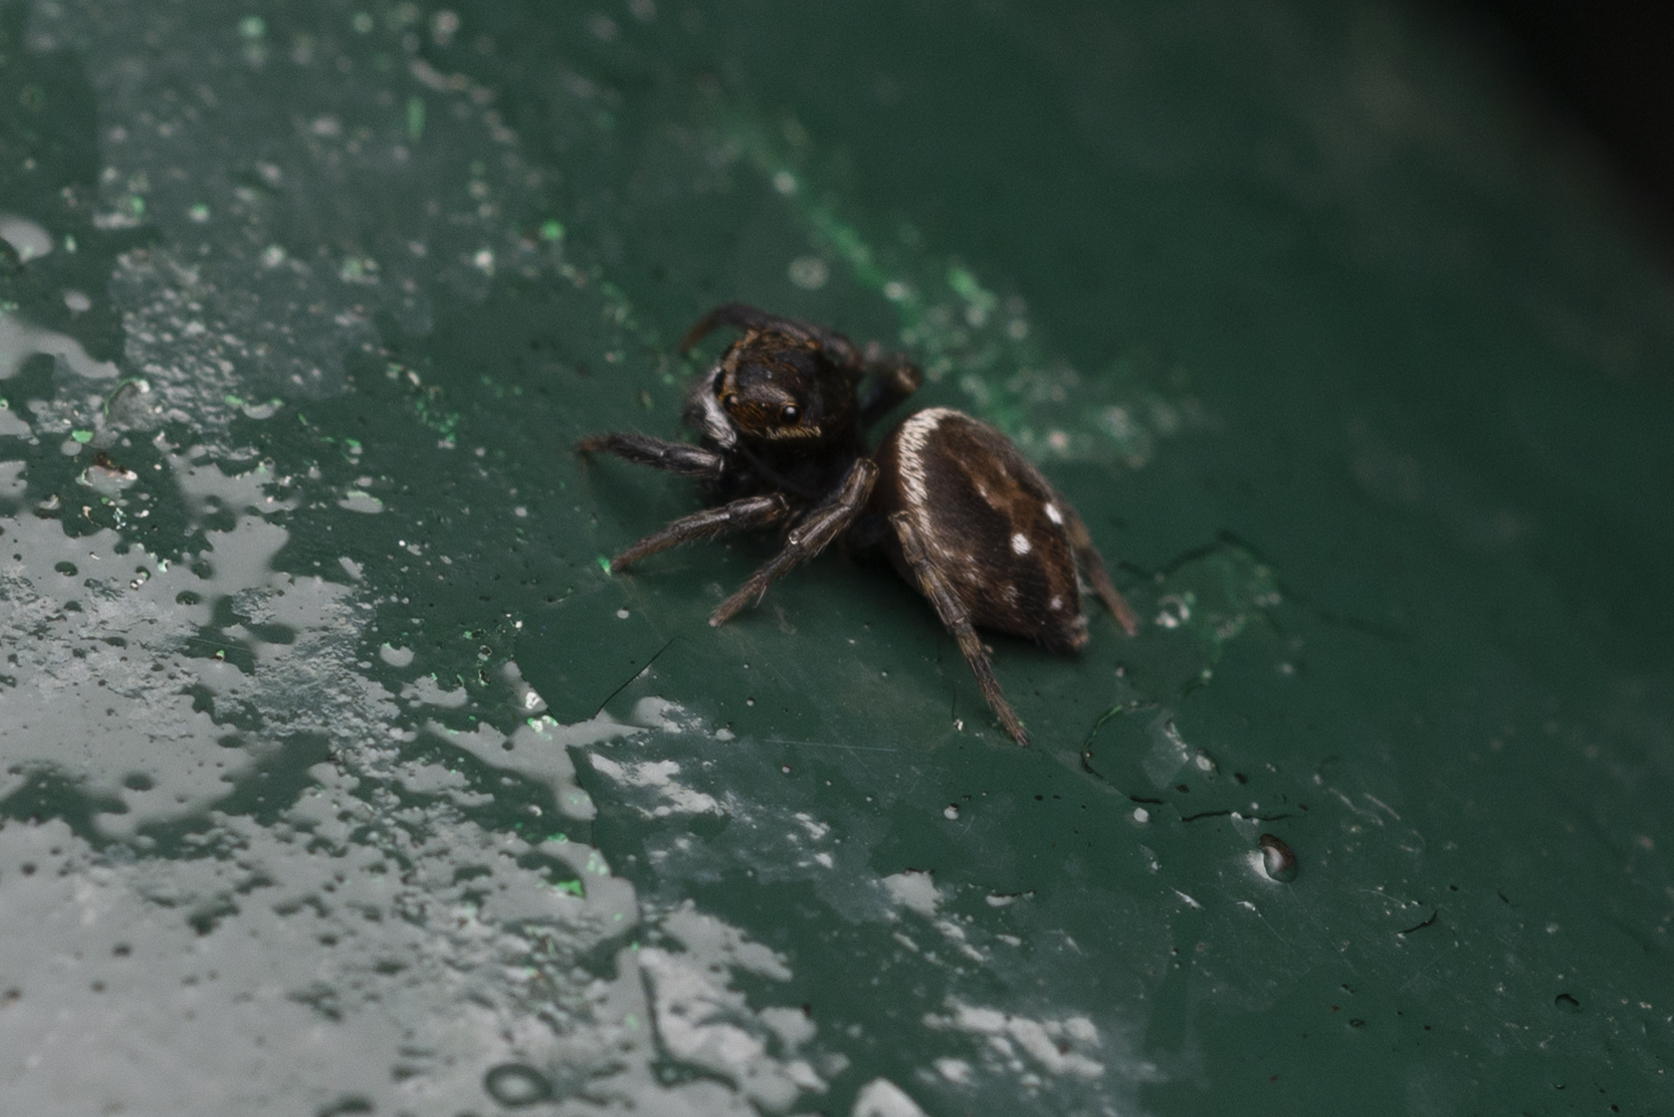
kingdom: Animalia
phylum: Arthropoda
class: Arachnida
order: Araneae
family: Salticidae
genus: Hasarius
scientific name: Hasarius adansoni
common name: Jumping spider
